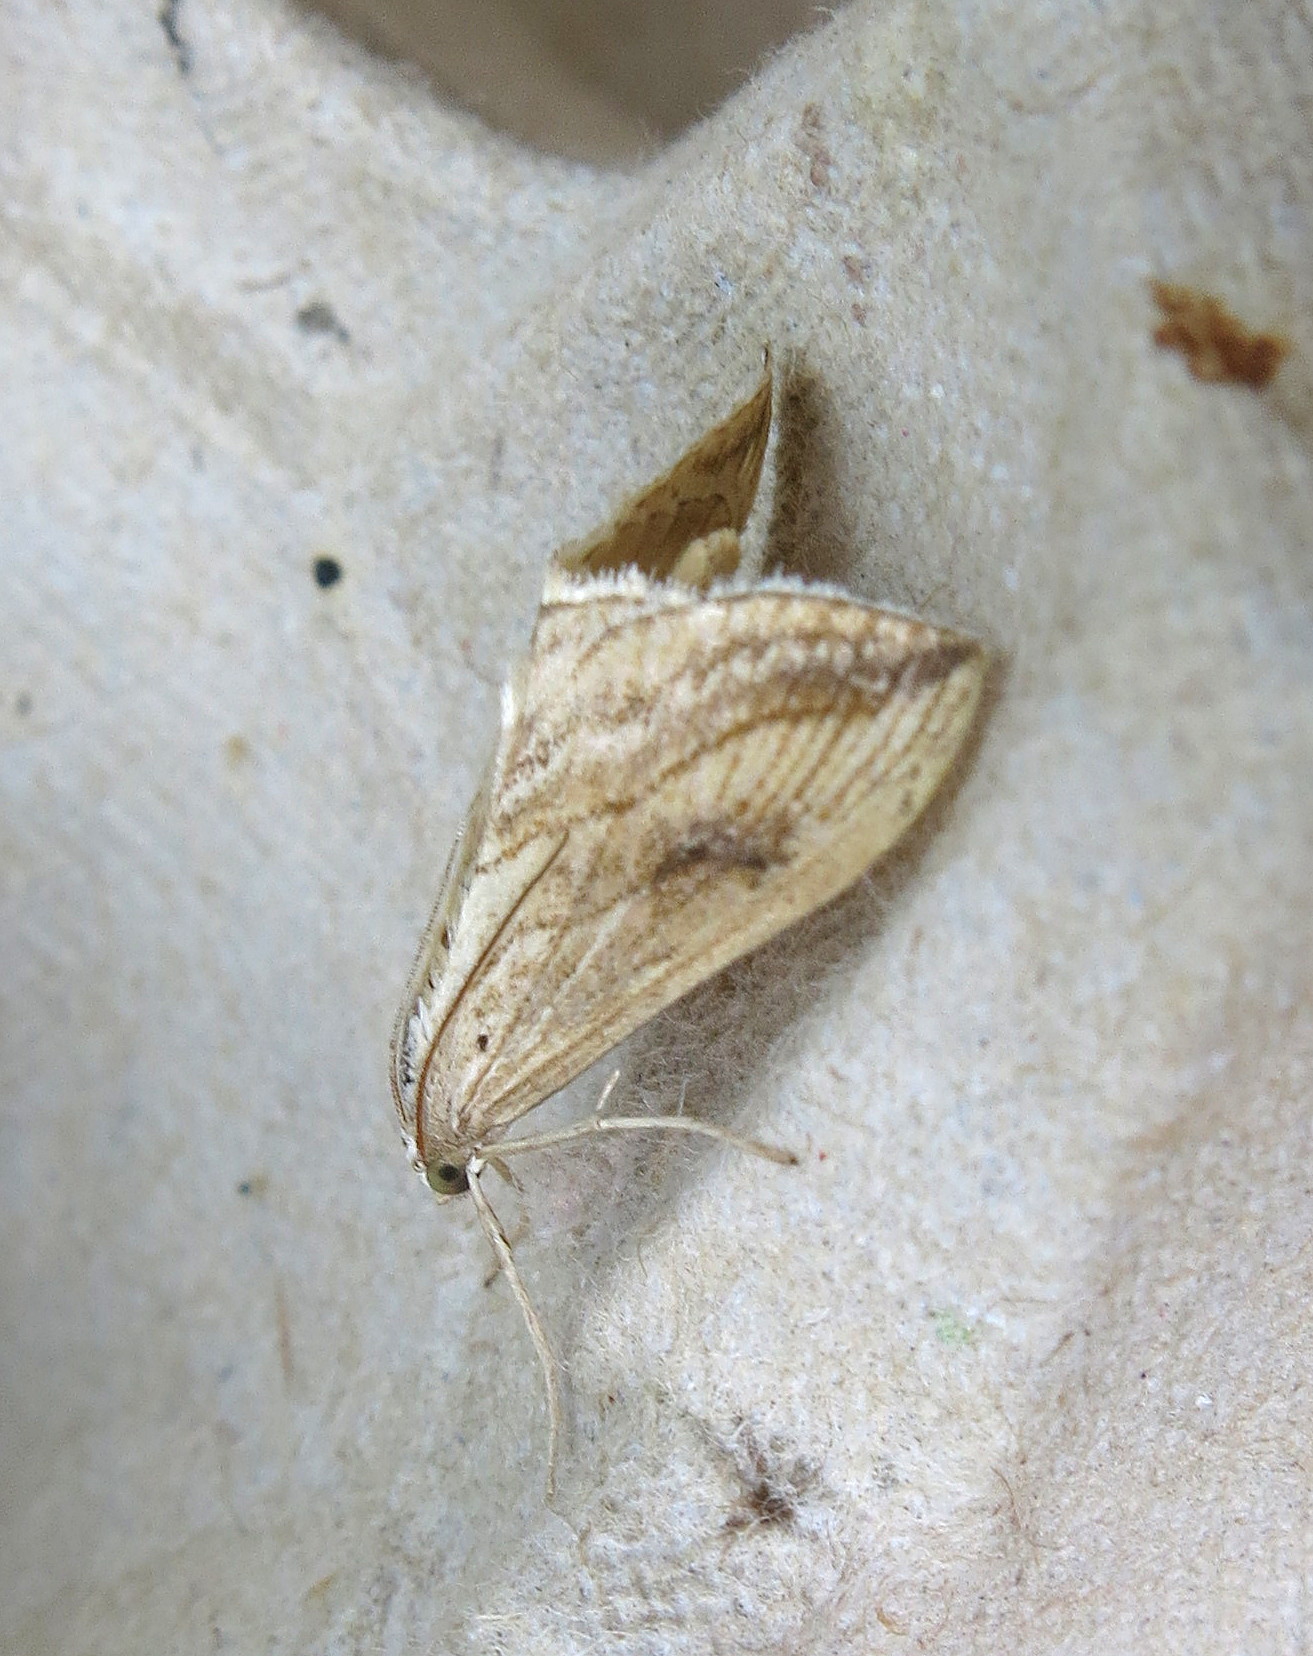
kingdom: Animalia
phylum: Arthropoda
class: Insecta
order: Lepidoptera
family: Crambidae
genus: Evergestis
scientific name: Evergestis forficalis
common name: Garden pebble
